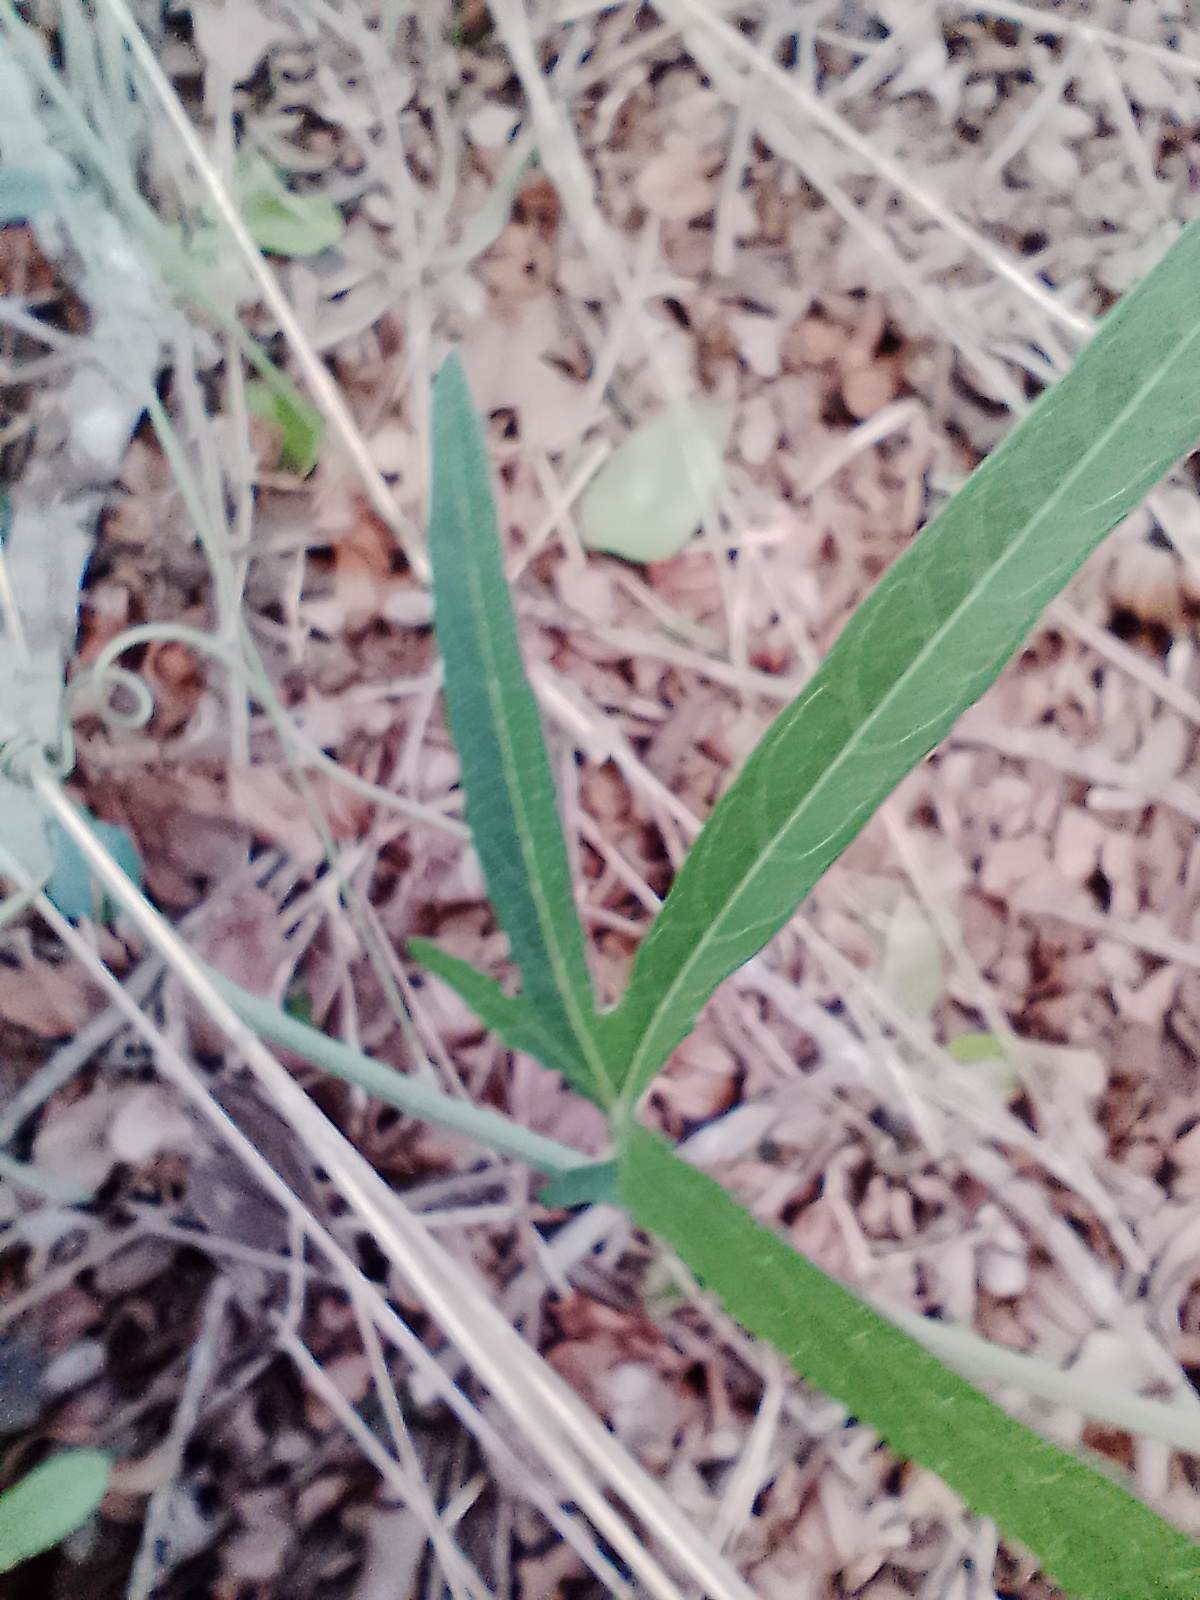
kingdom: Plantae
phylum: Tracheophyta
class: Magnoliopsida
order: Malpighiales
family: Passifloraceae
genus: Passiflora
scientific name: Passiflora caerulea
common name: Blue passionflower
